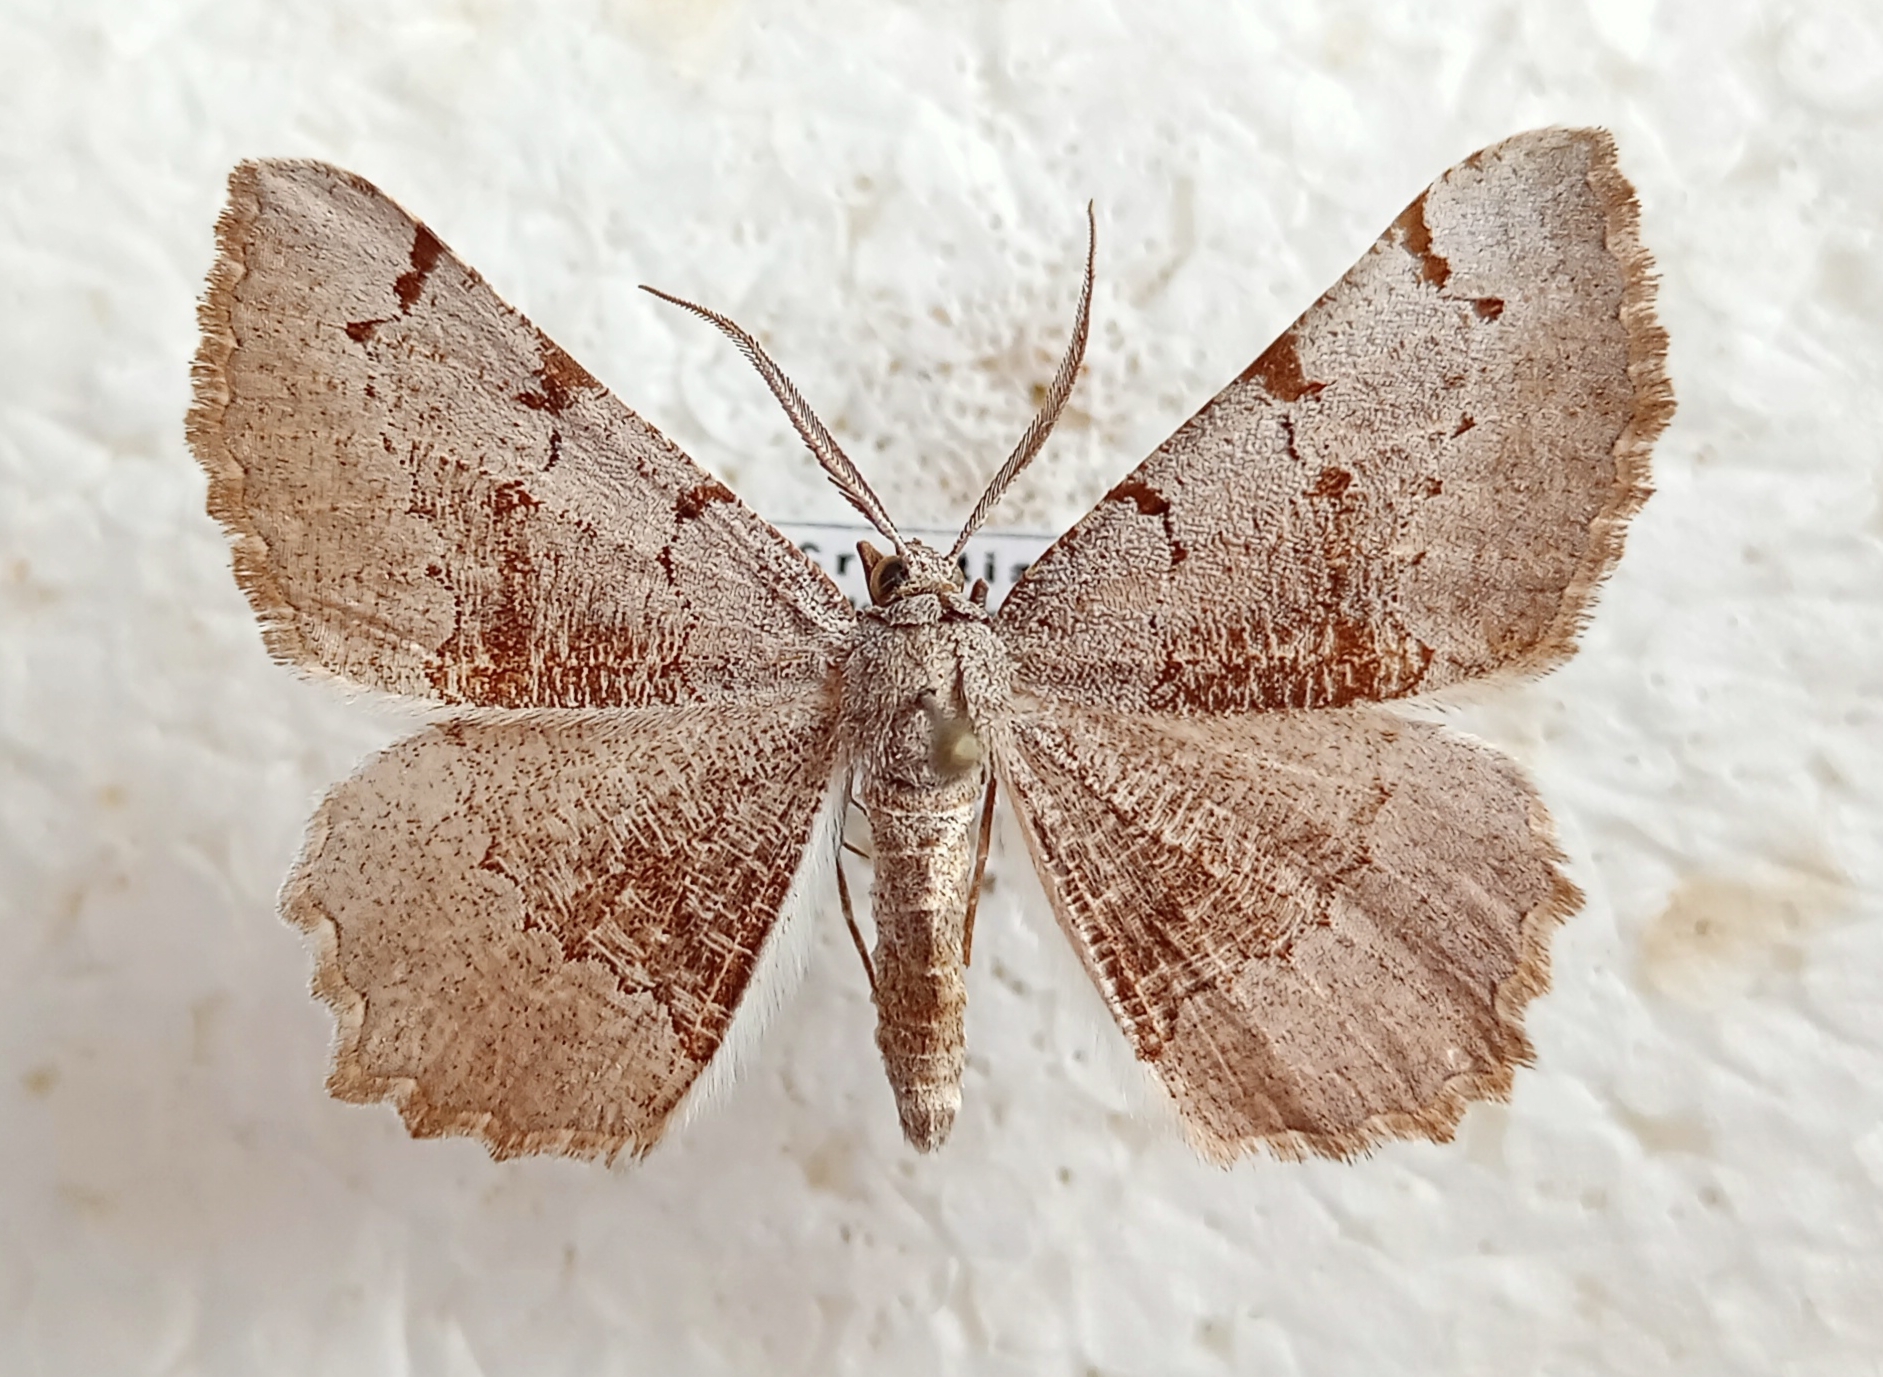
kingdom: Animalia
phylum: Arthropoda
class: Insecta
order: Lepidoptera
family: Geometridae
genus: Neognopharmia
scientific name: Neognopharmia stevenaria
